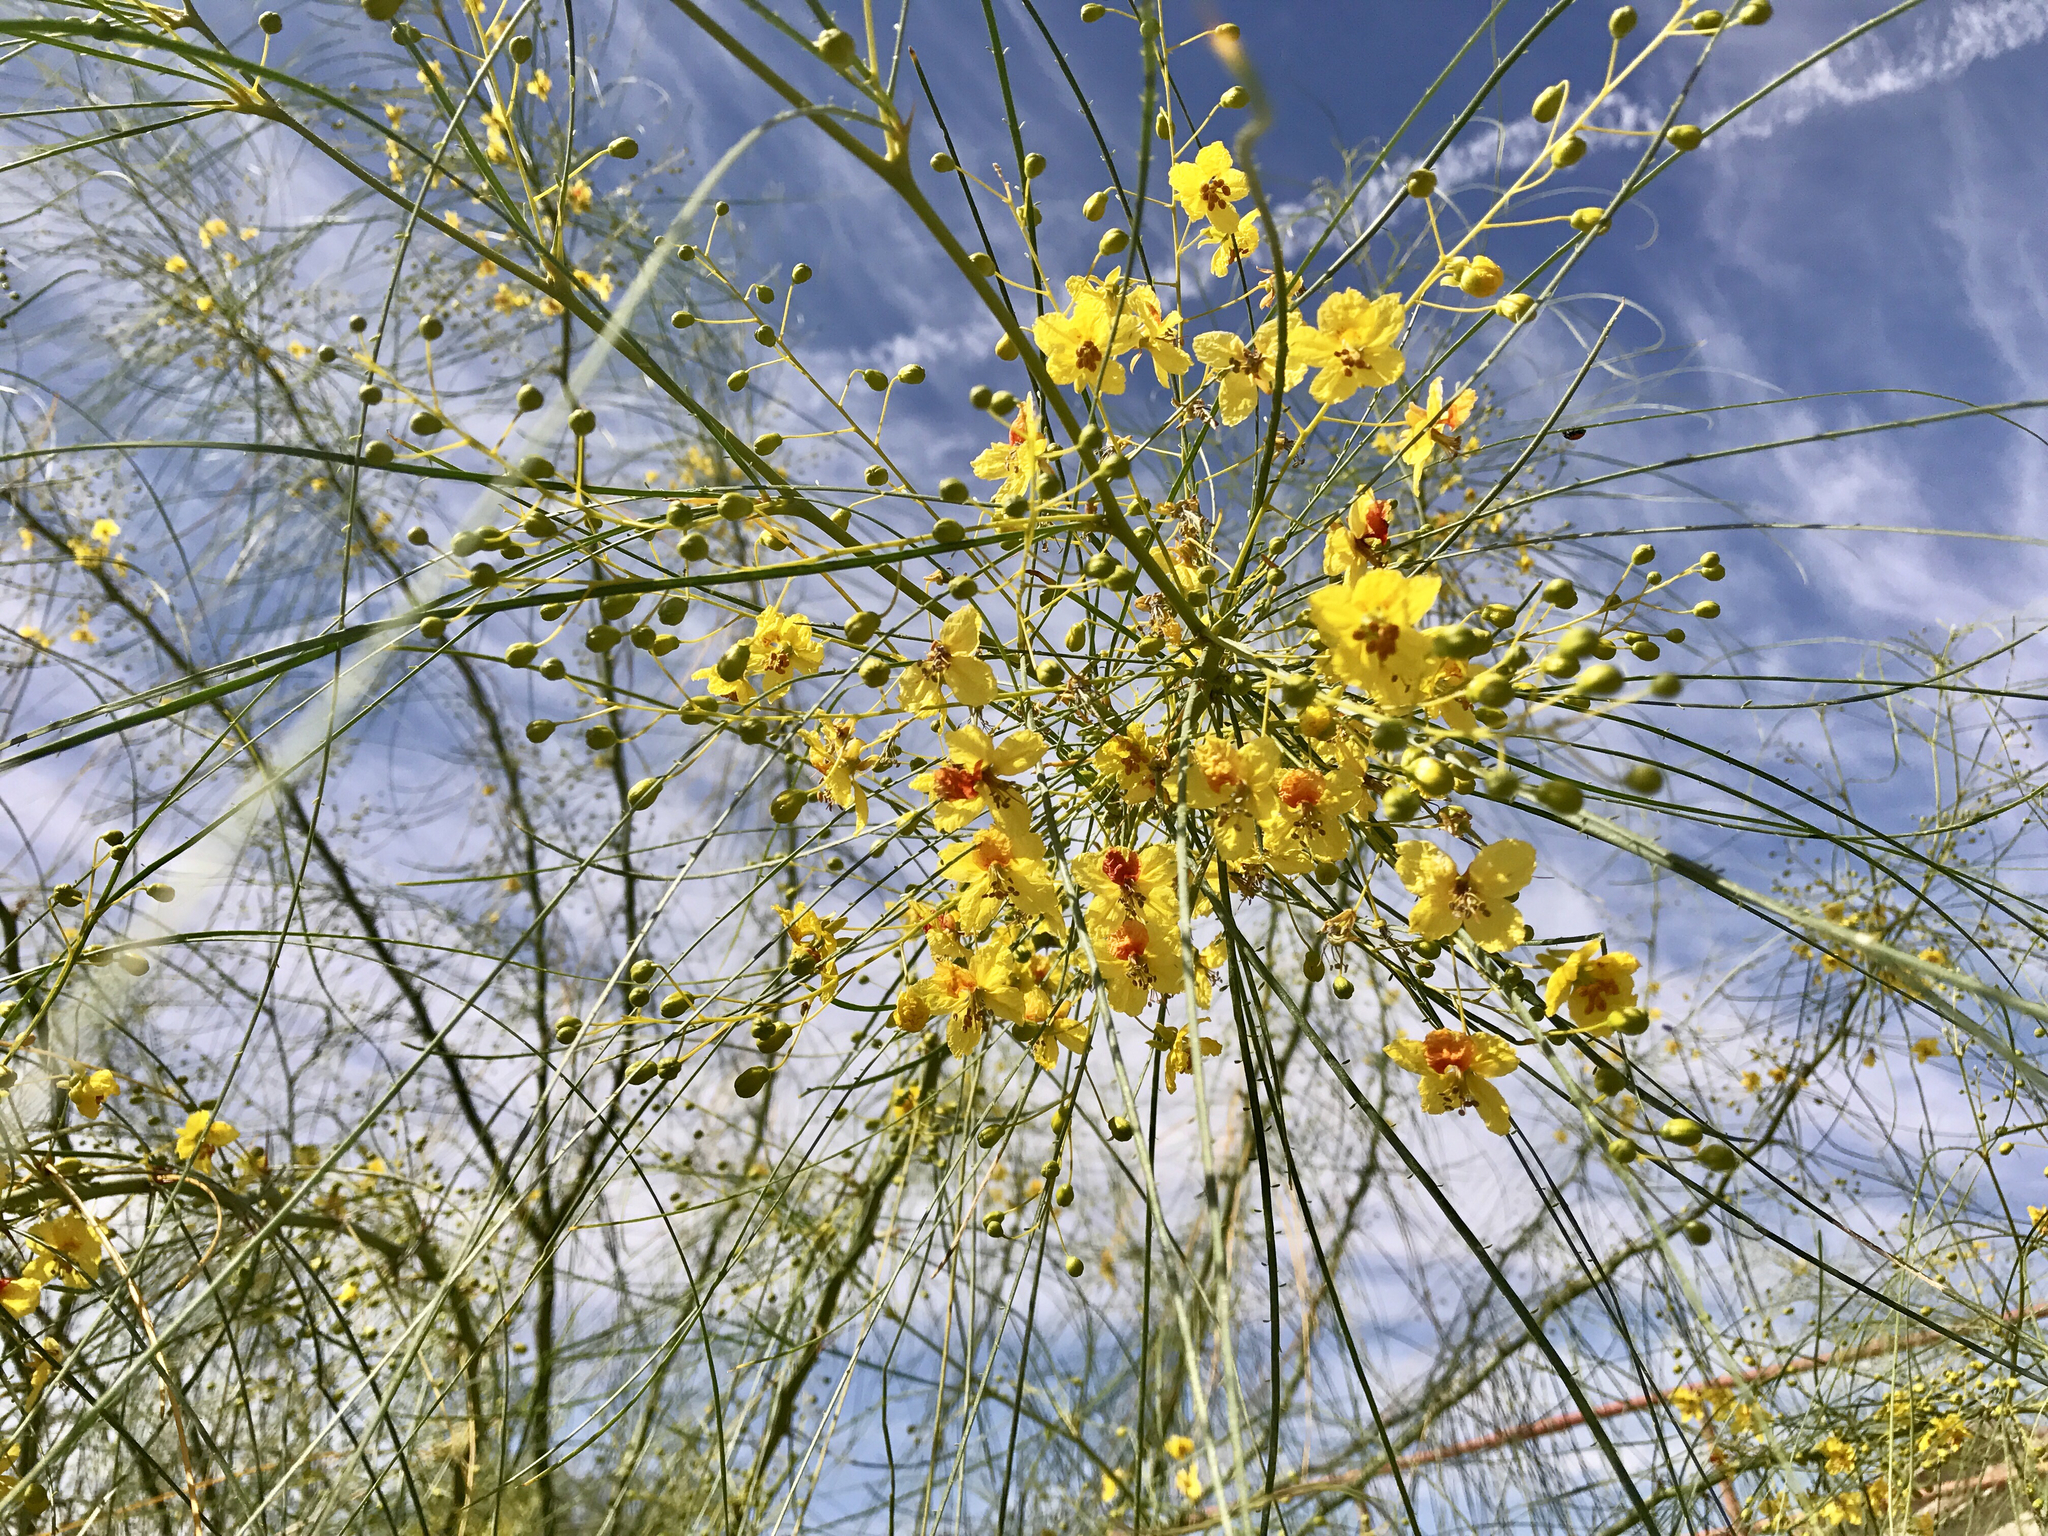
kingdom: Plantae
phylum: Tracheophyta
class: Magnoliopsida
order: Fabales
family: Fabaceae
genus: Parkinsonia
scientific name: Parkinsonia aculeata
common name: Jerusalem thorn
